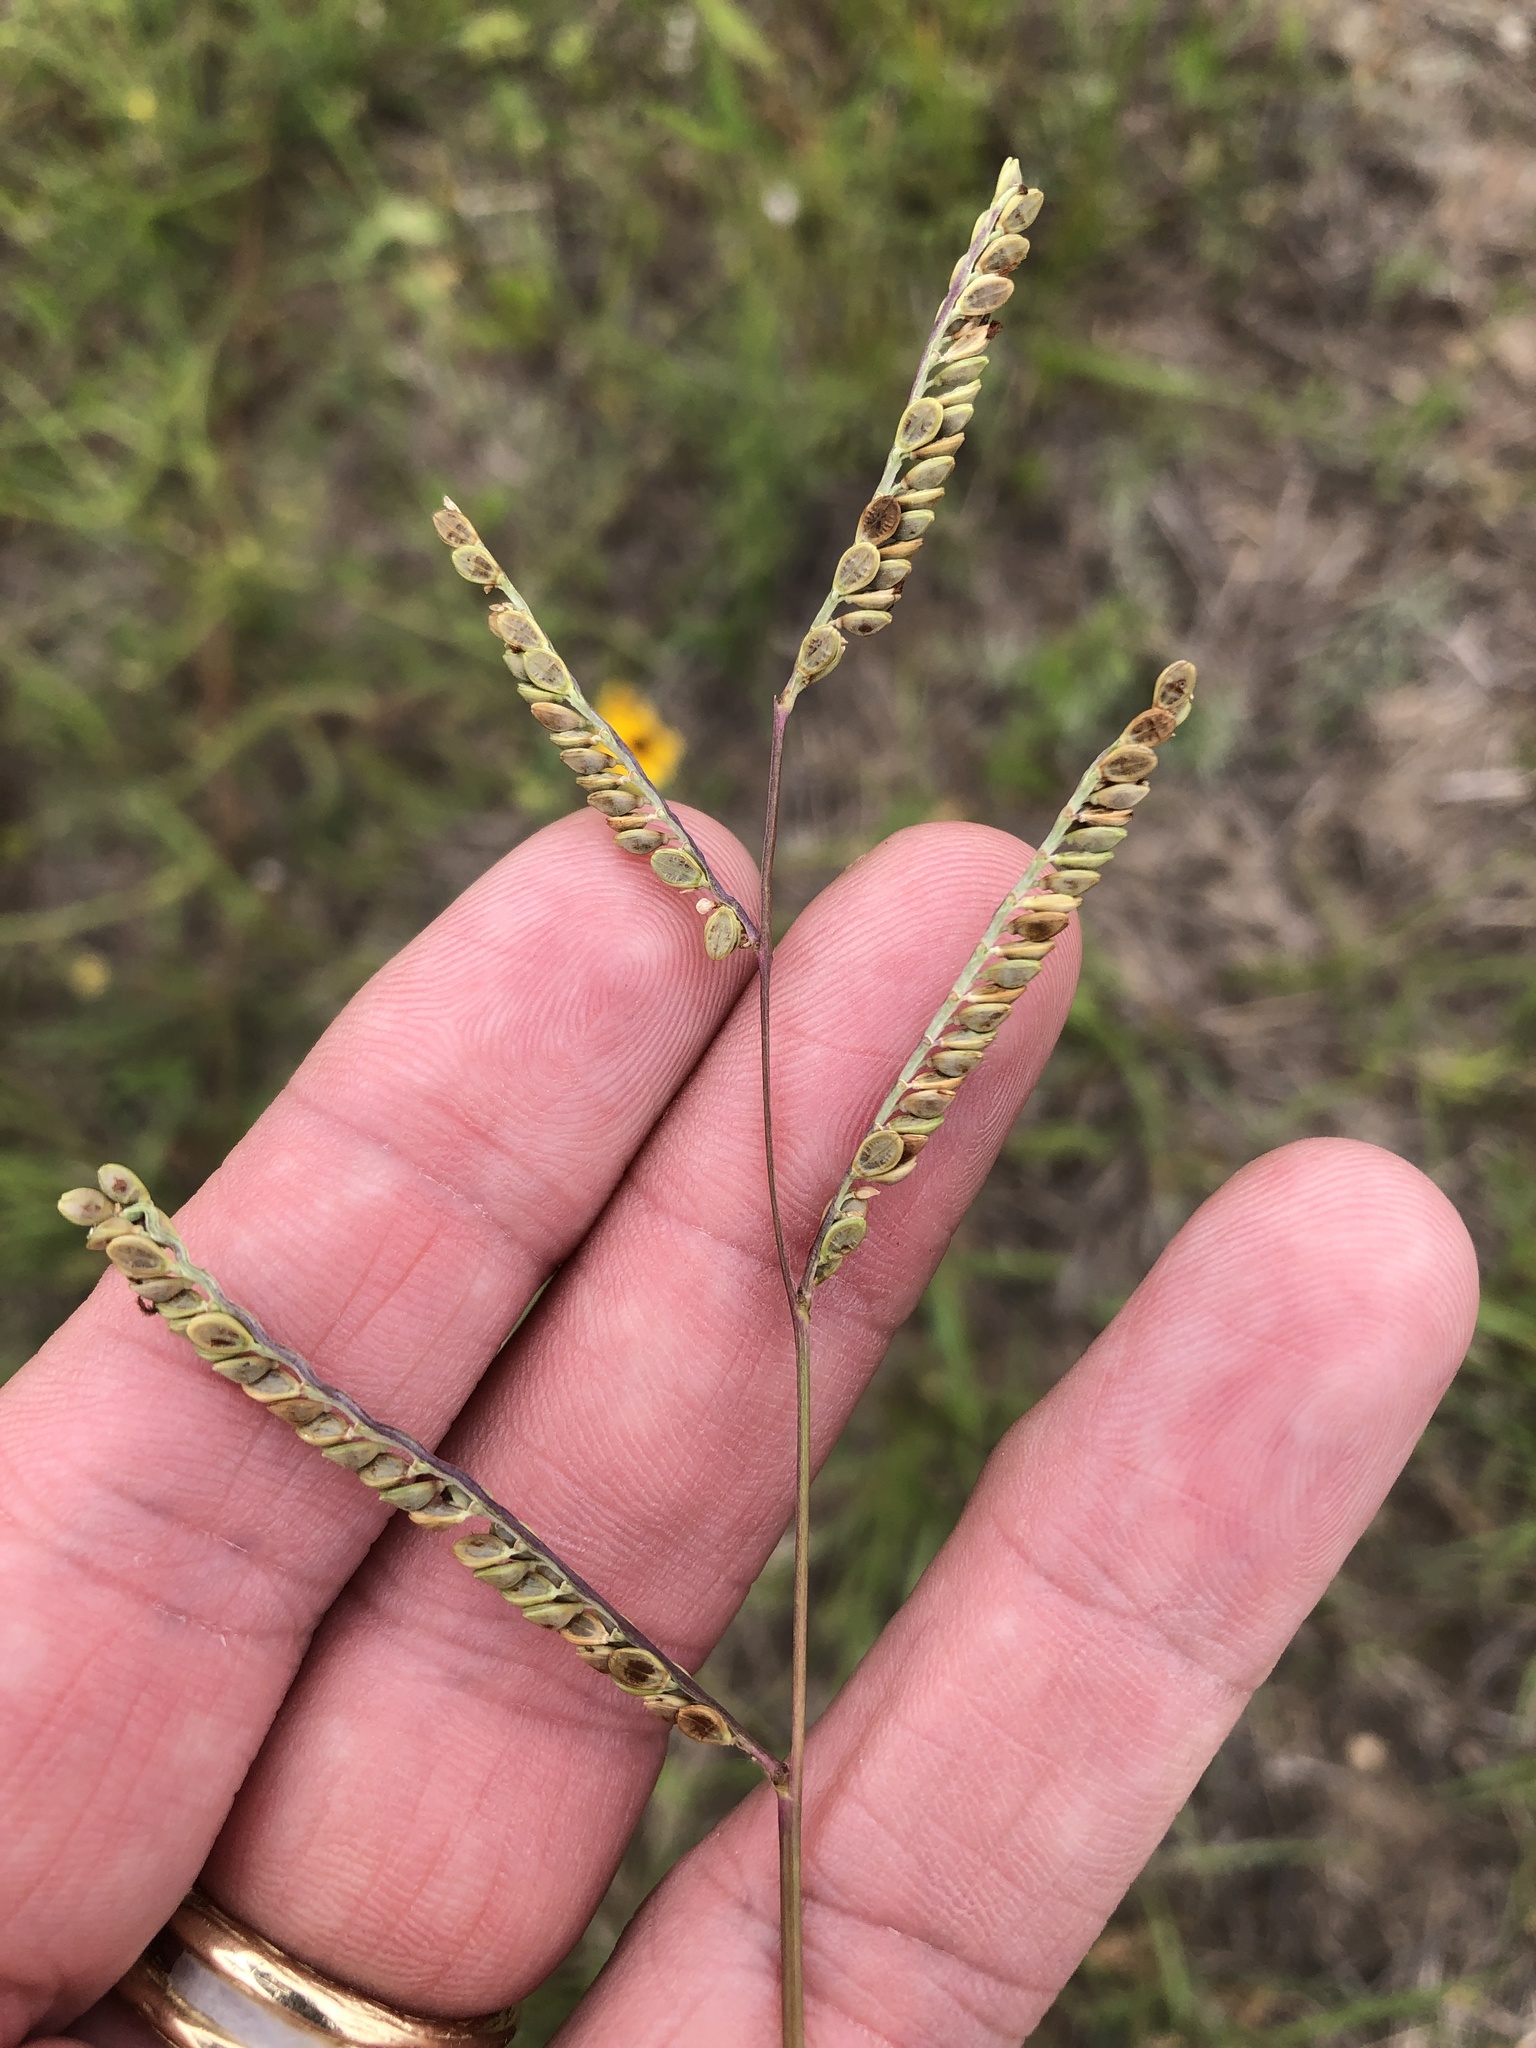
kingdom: Plantae
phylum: Tracheophyta
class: Liliopsida
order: Poales
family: Poaceae
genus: Paspalum
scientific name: Paspalum plicatulum
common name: Top paspalum
